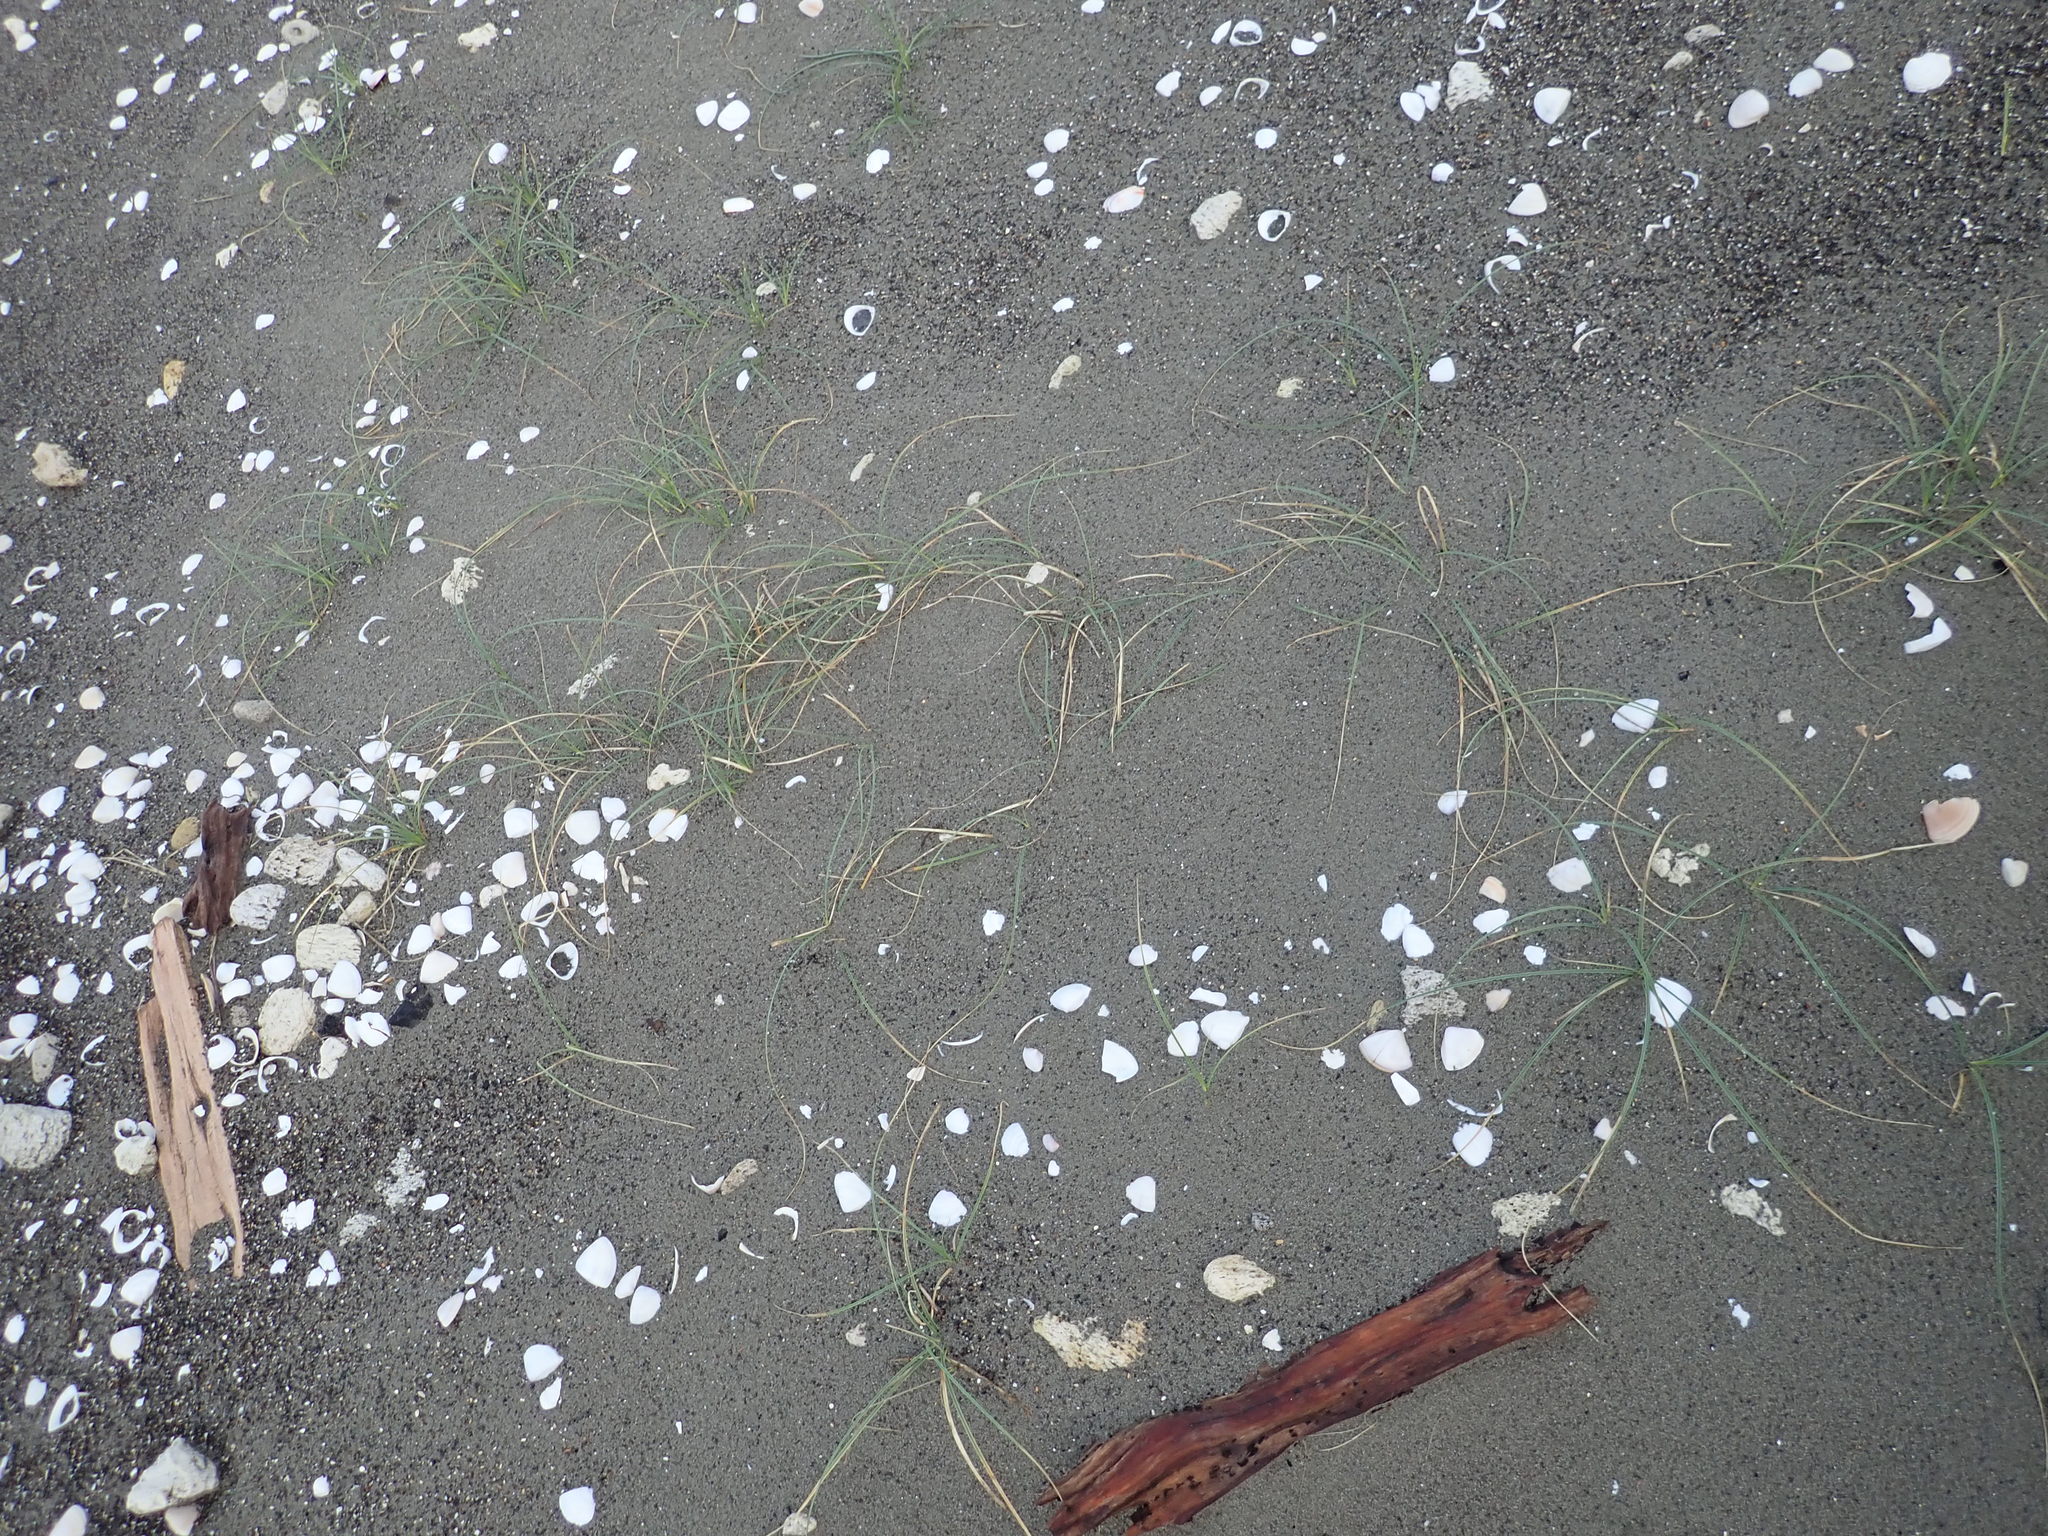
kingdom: Plantae
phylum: Tracheophyta
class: Liliopsida
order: Poales
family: Cyperaceae
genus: Carex
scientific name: Carex pumila
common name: Dwarf sedge
